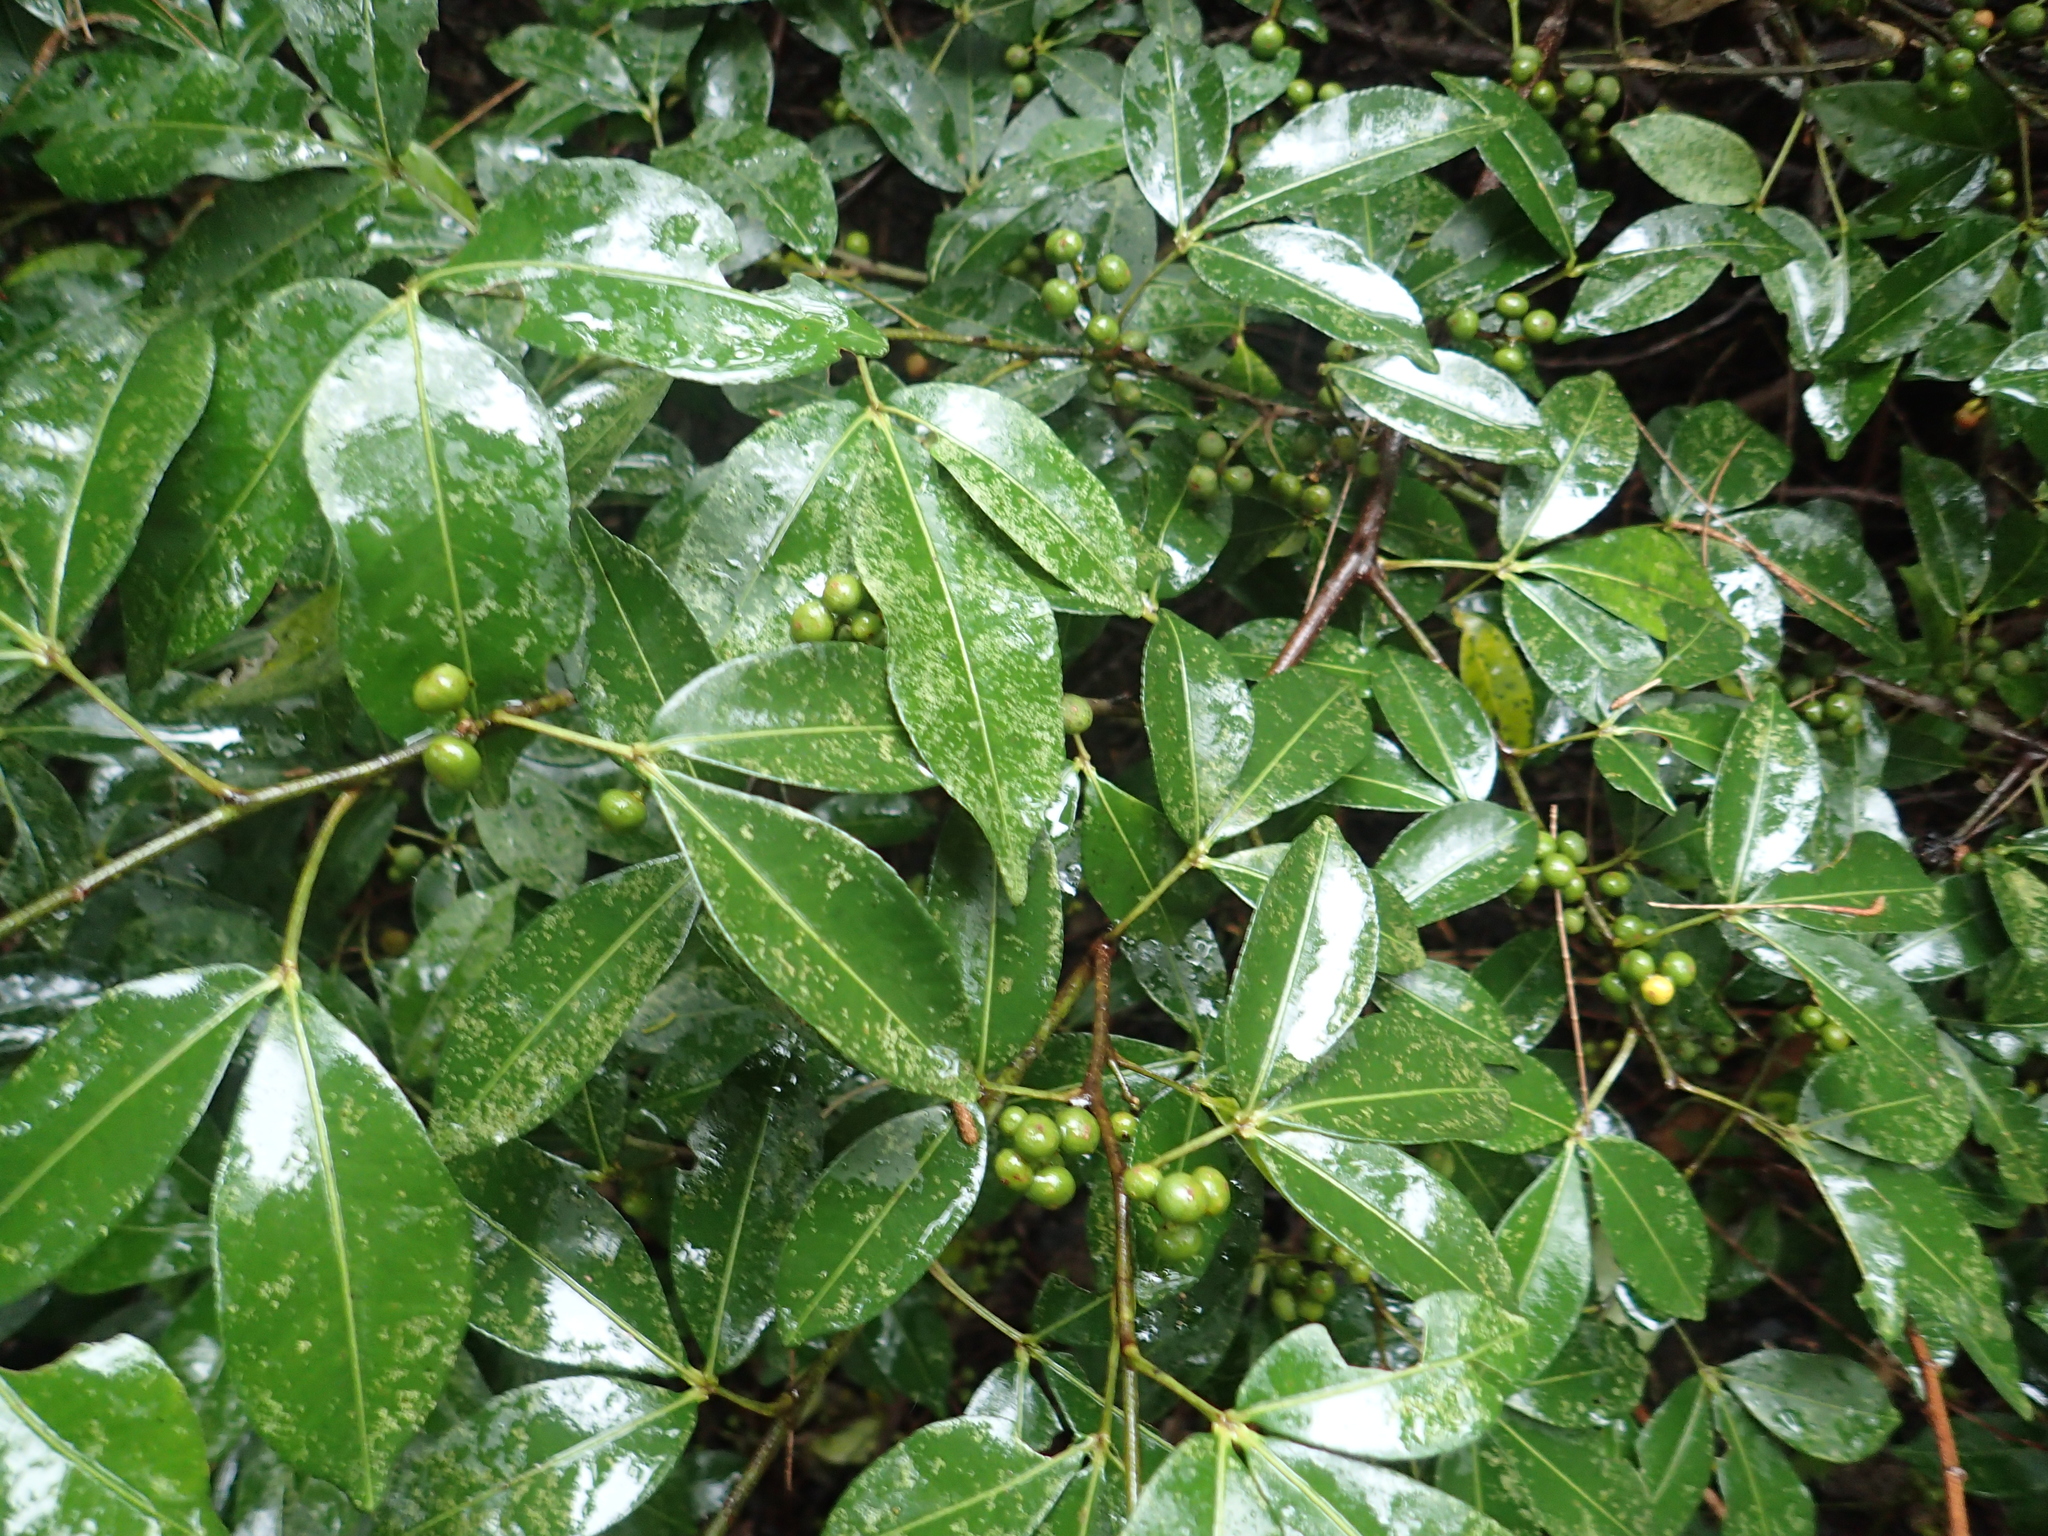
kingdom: Plantae
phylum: Tracheophyta
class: Magnoliopsida
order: Sapindales
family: Rutaceae
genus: Zanthoxylum
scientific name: Zanthoxylum asiaticum
